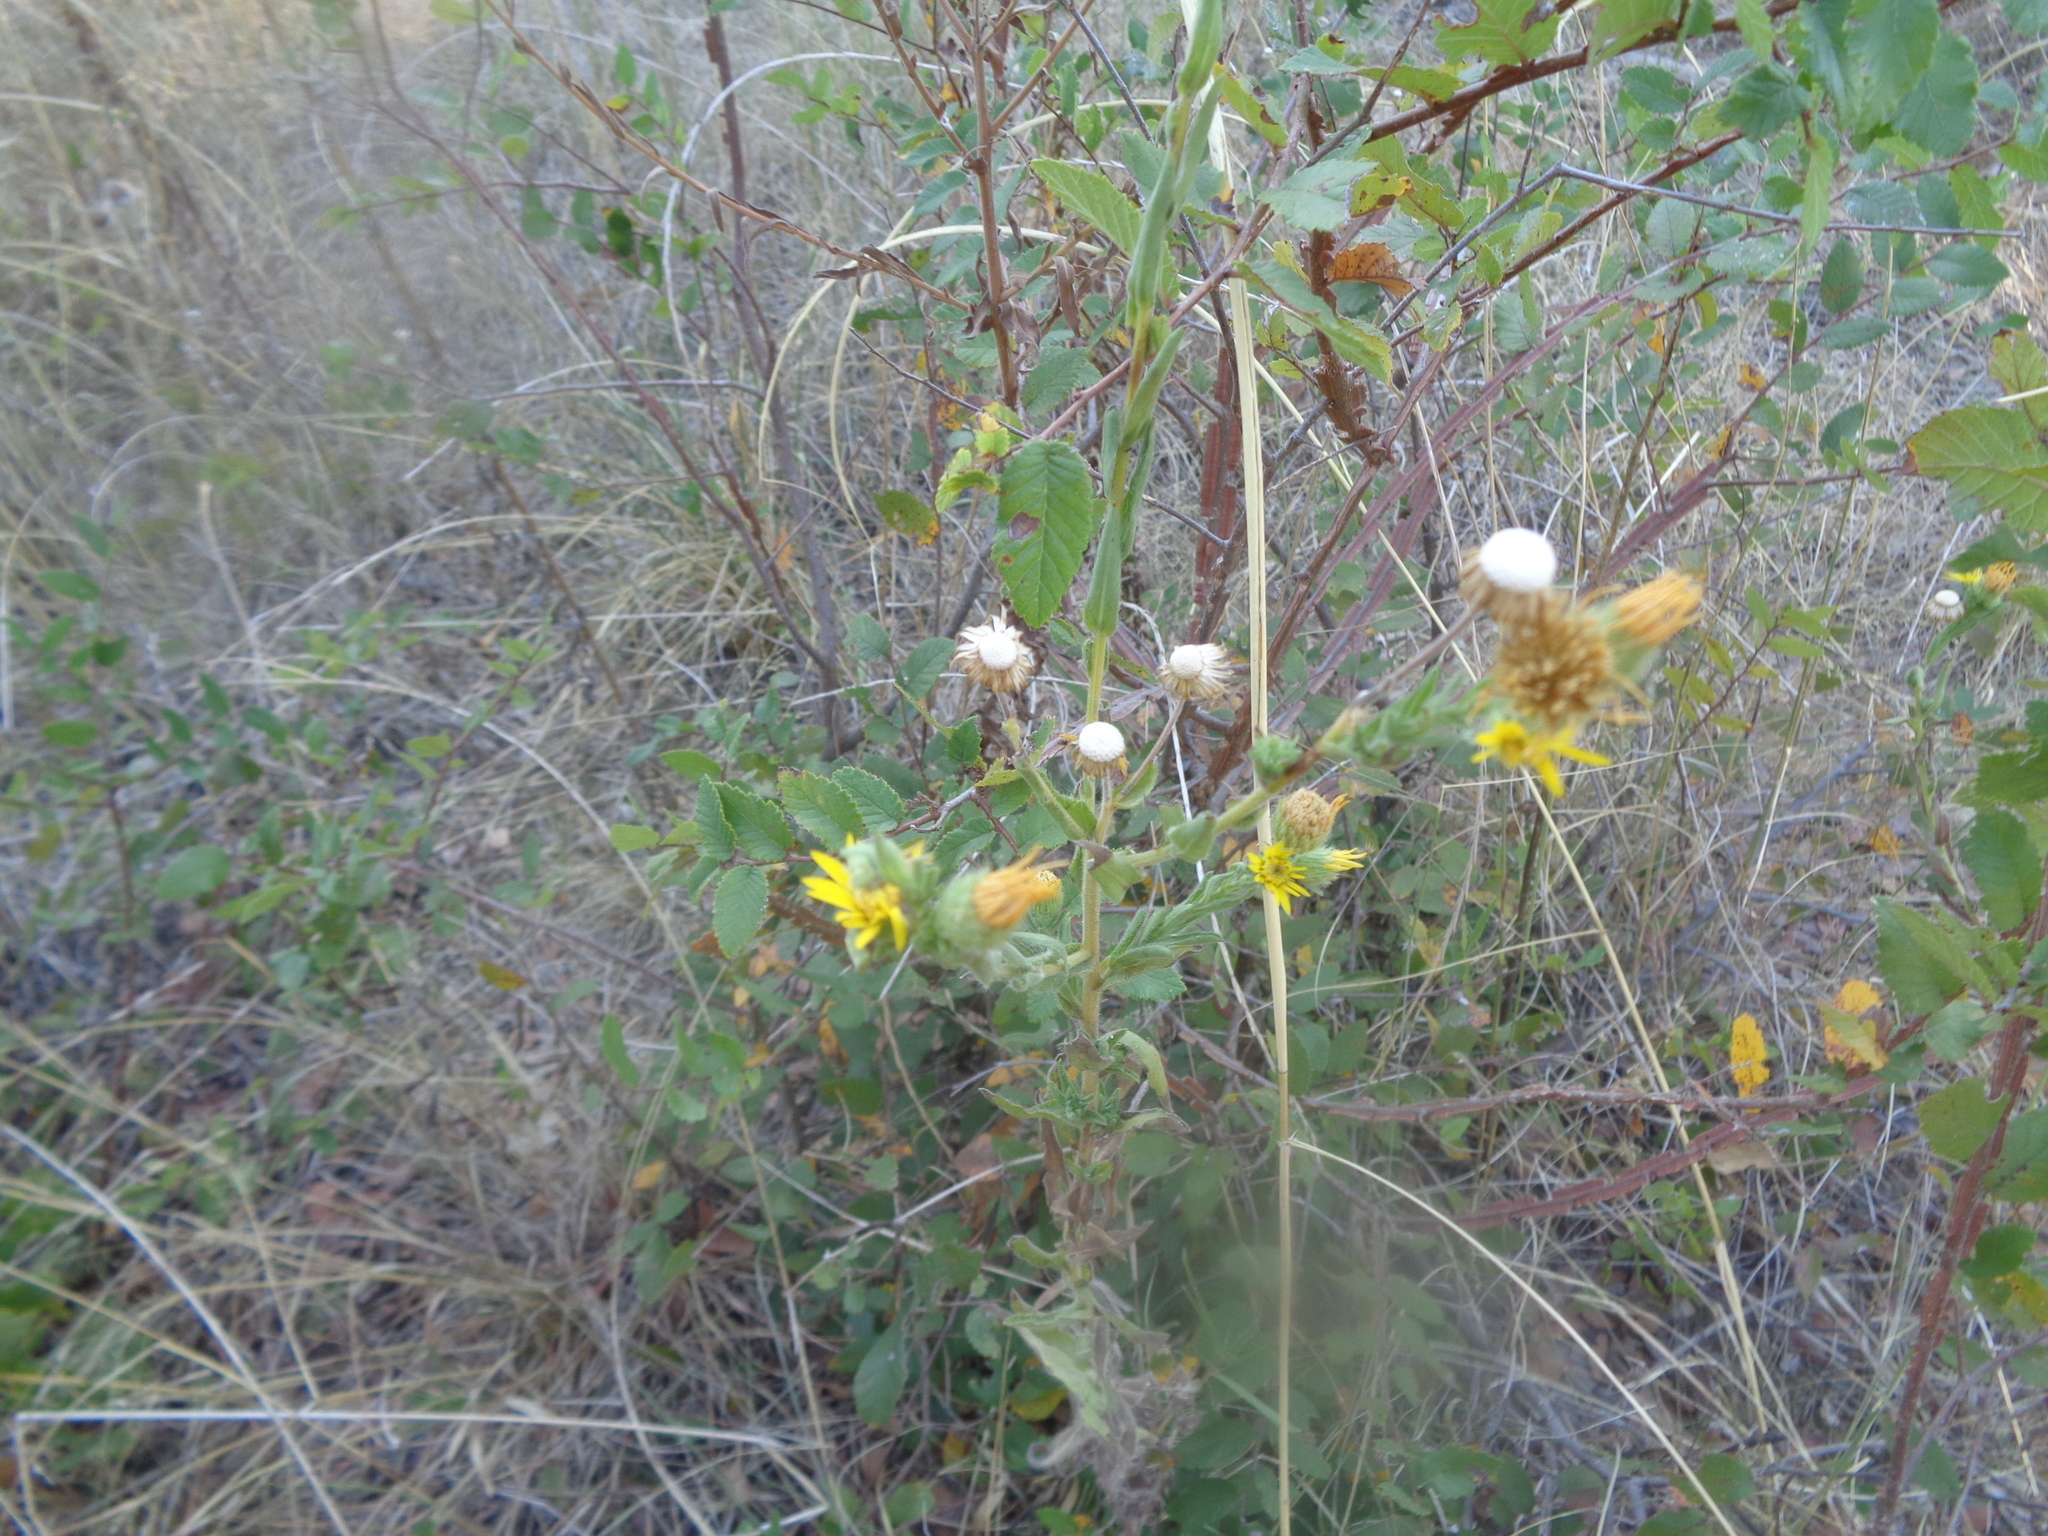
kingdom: Plantae
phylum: Tracheophyta
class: Magnoliopsida
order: Asterales
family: Asteraceae
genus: Bradburia
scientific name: Bradburia pilosa
